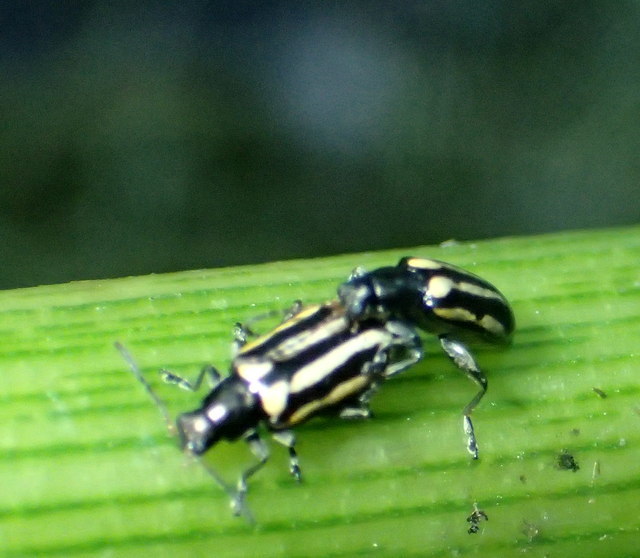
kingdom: Animalia
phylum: Arthropoda
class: Insecta
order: Coleoptera
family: Chrysomelidae
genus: Agasicles
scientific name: Agasicles hygrophila
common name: Alligatorweed flea beetle
